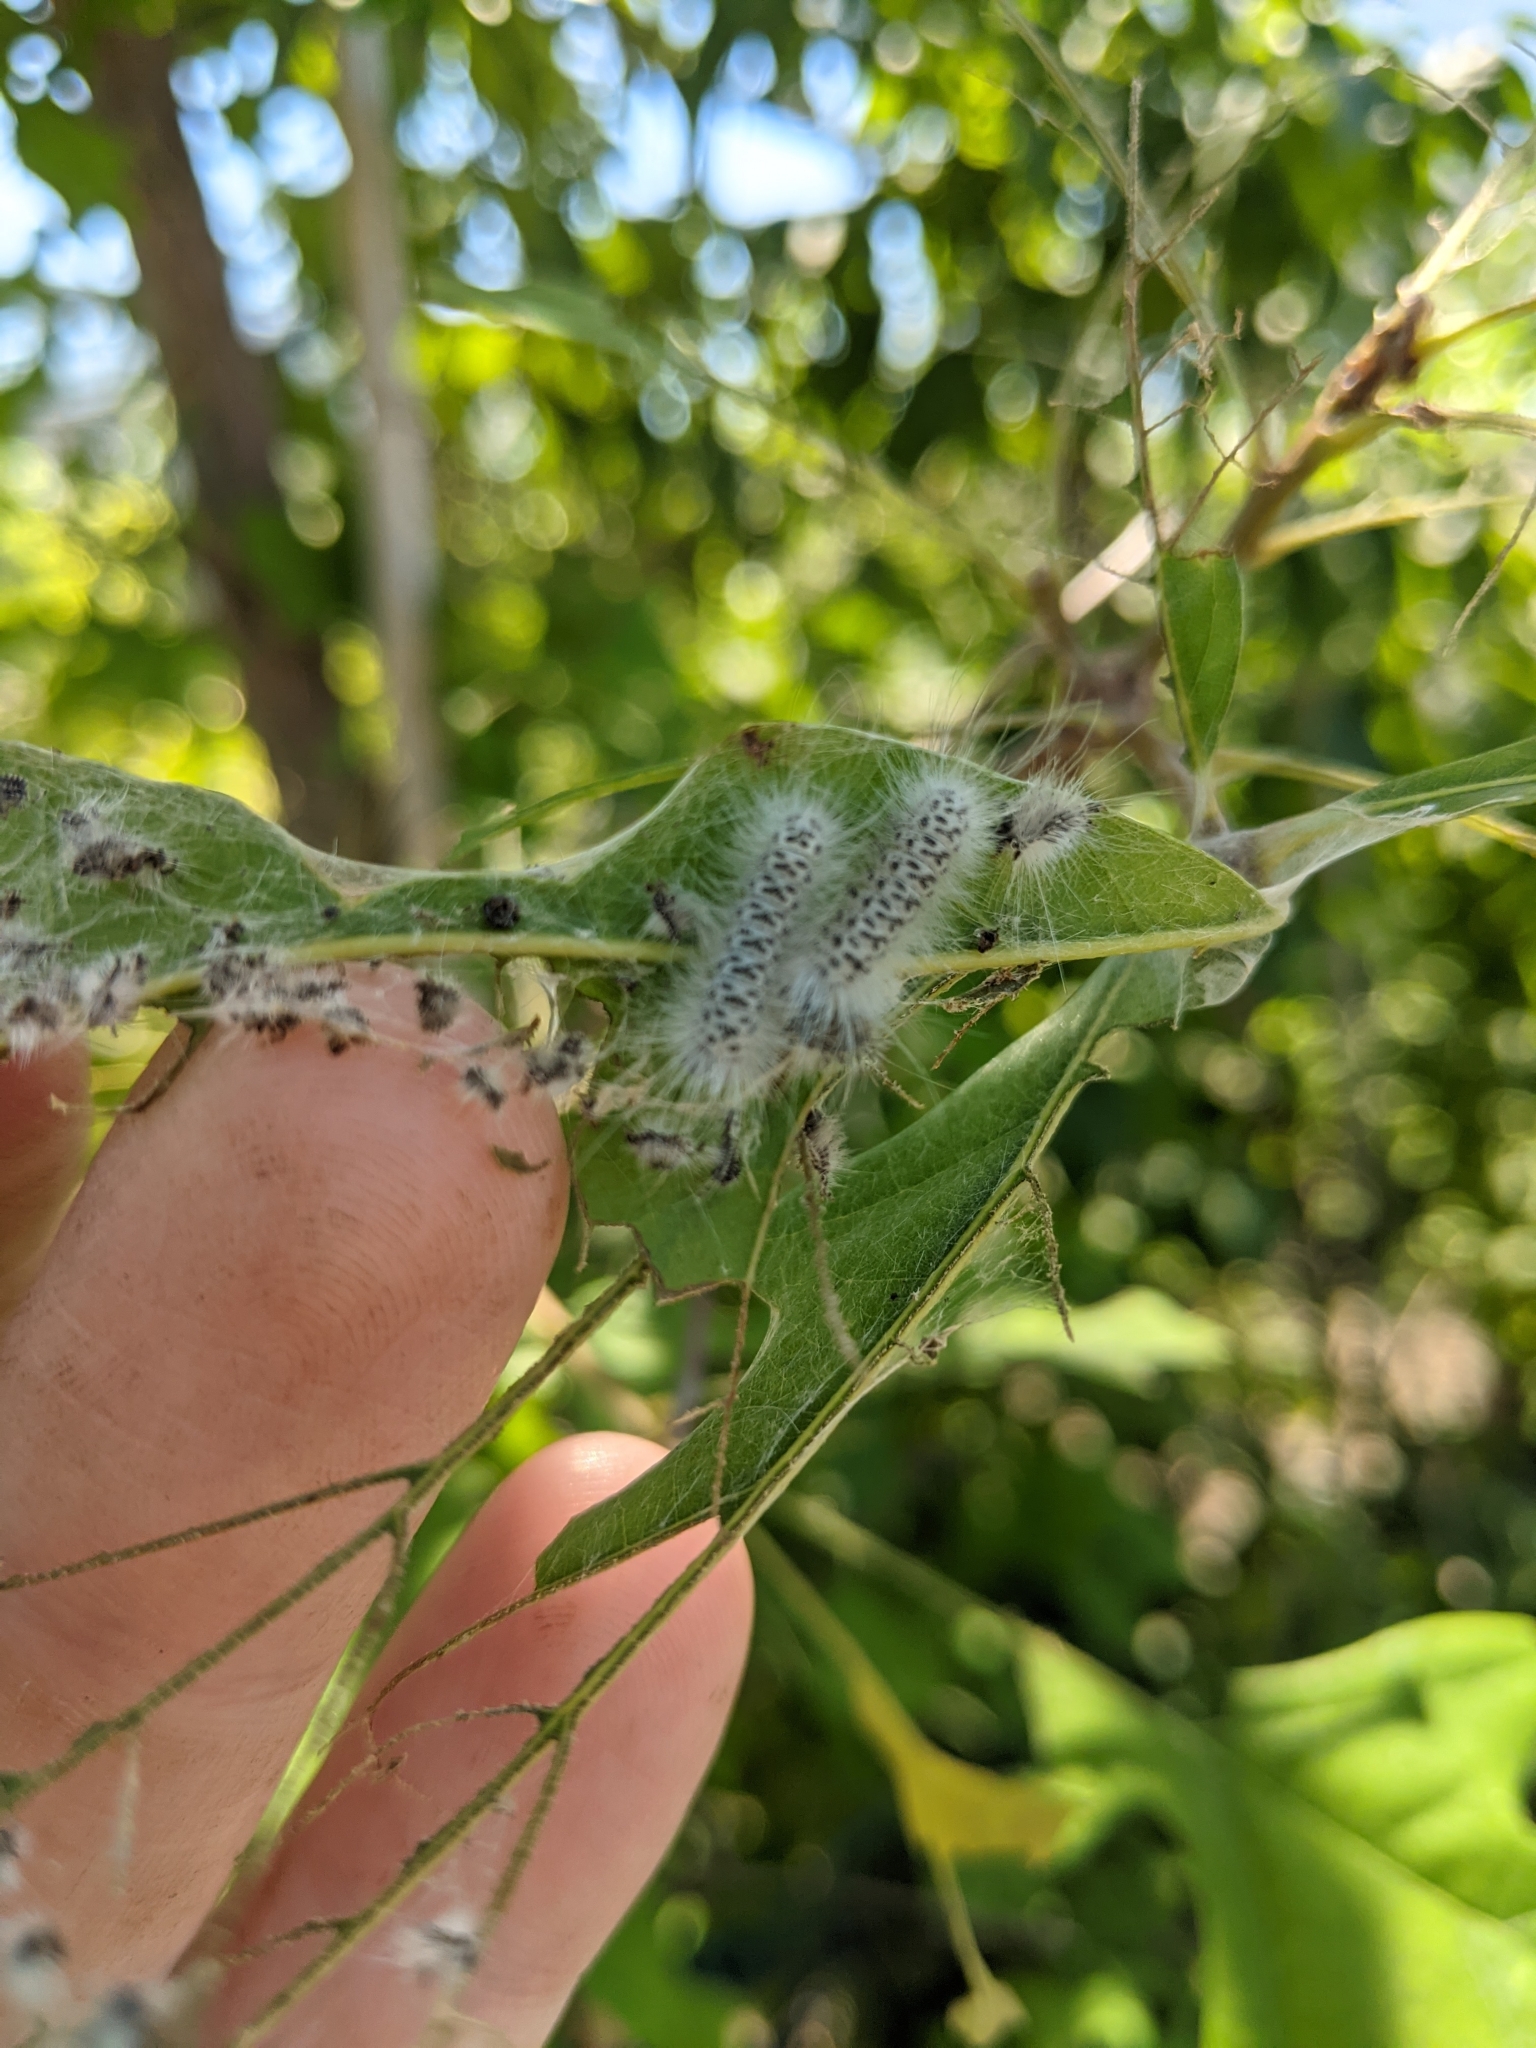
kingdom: Animalia
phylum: Arthropoda
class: Insecta
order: Lepidoptera
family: Erebidae
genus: Lophocampa
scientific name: Lophocampa caryae
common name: Hickory tussock moth
